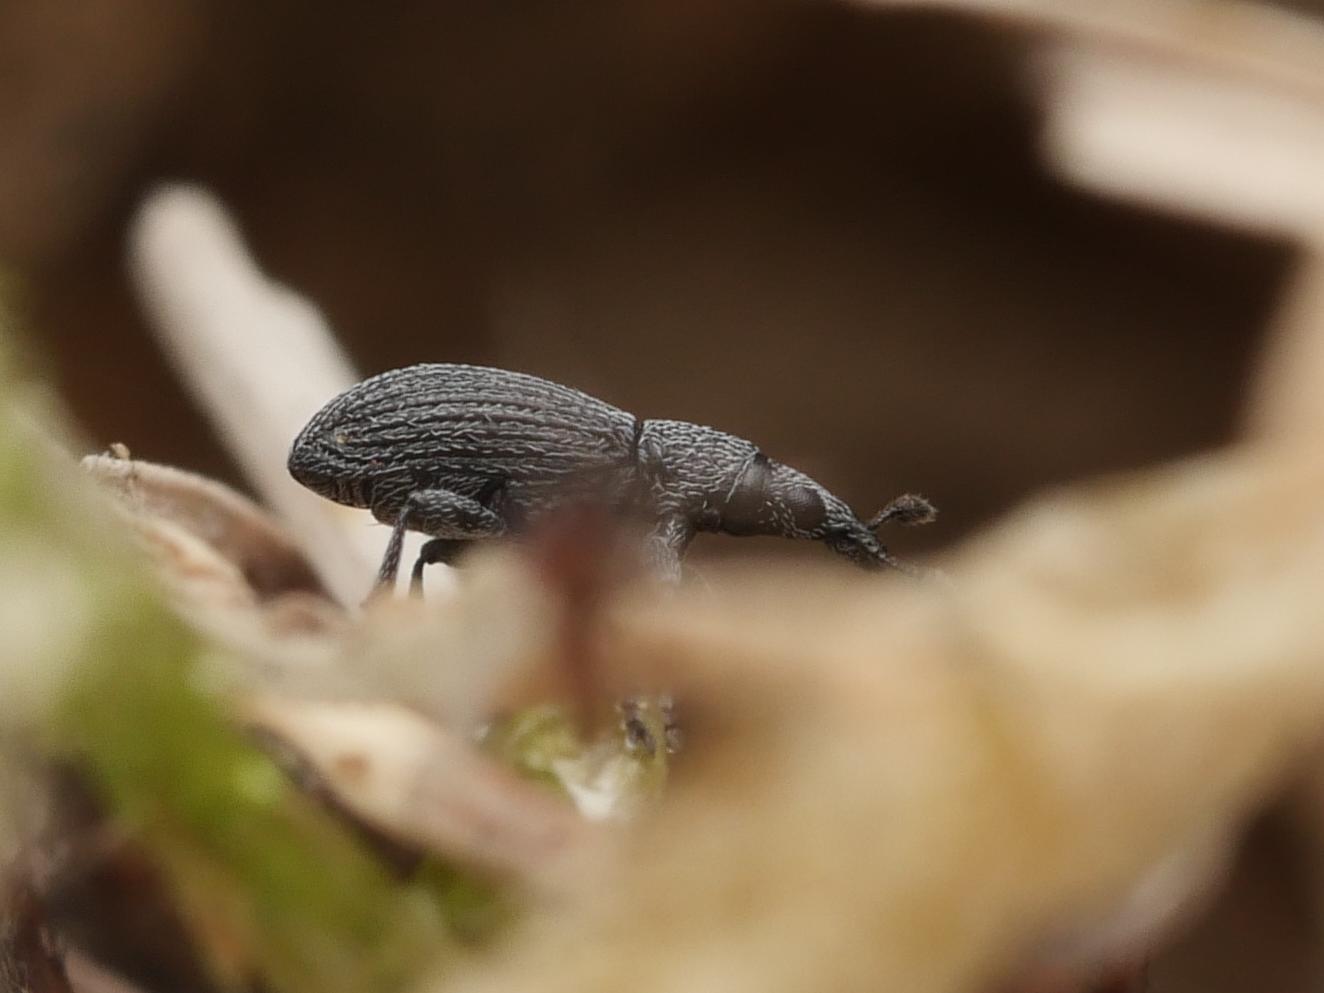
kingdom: Animalia
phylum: Arthropoda
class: Insecta
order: Coleoptera
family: Apionidae
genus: Pseudostenapion
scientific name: Pseudostenapion simum
